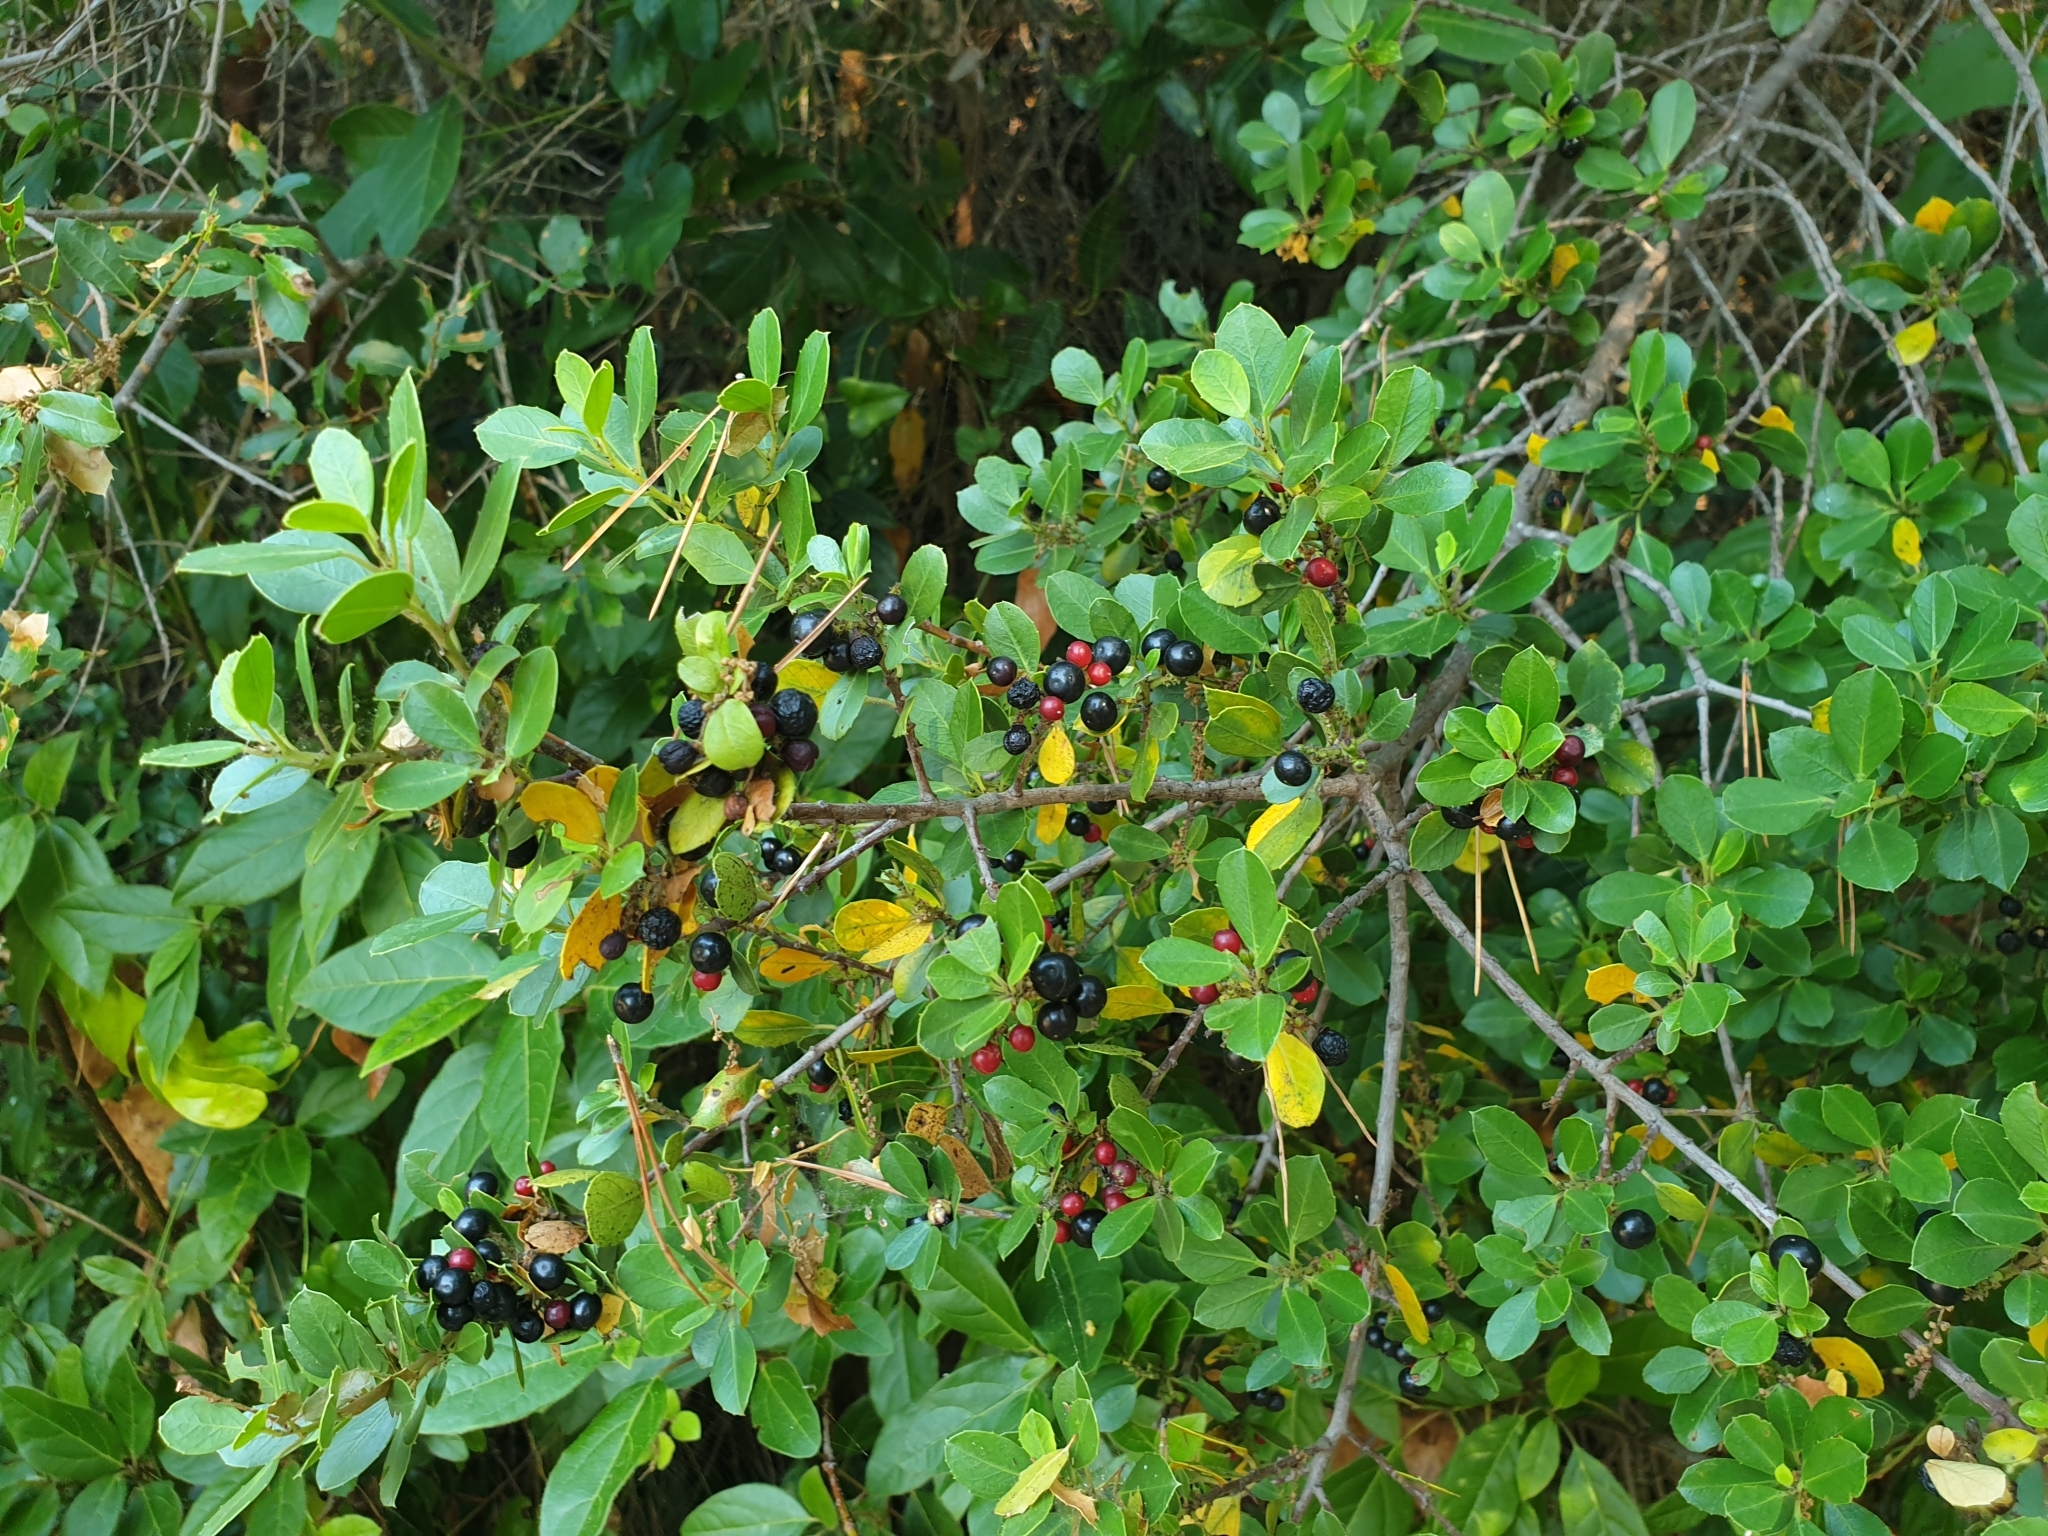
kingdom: Plantae
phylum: Tracheophyta
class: Magnoliopsida
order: Rosales
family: Rhamnaceae
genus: Rhamnus
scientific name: Rhamnus alaternus
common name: Mediterranean buckthorn
